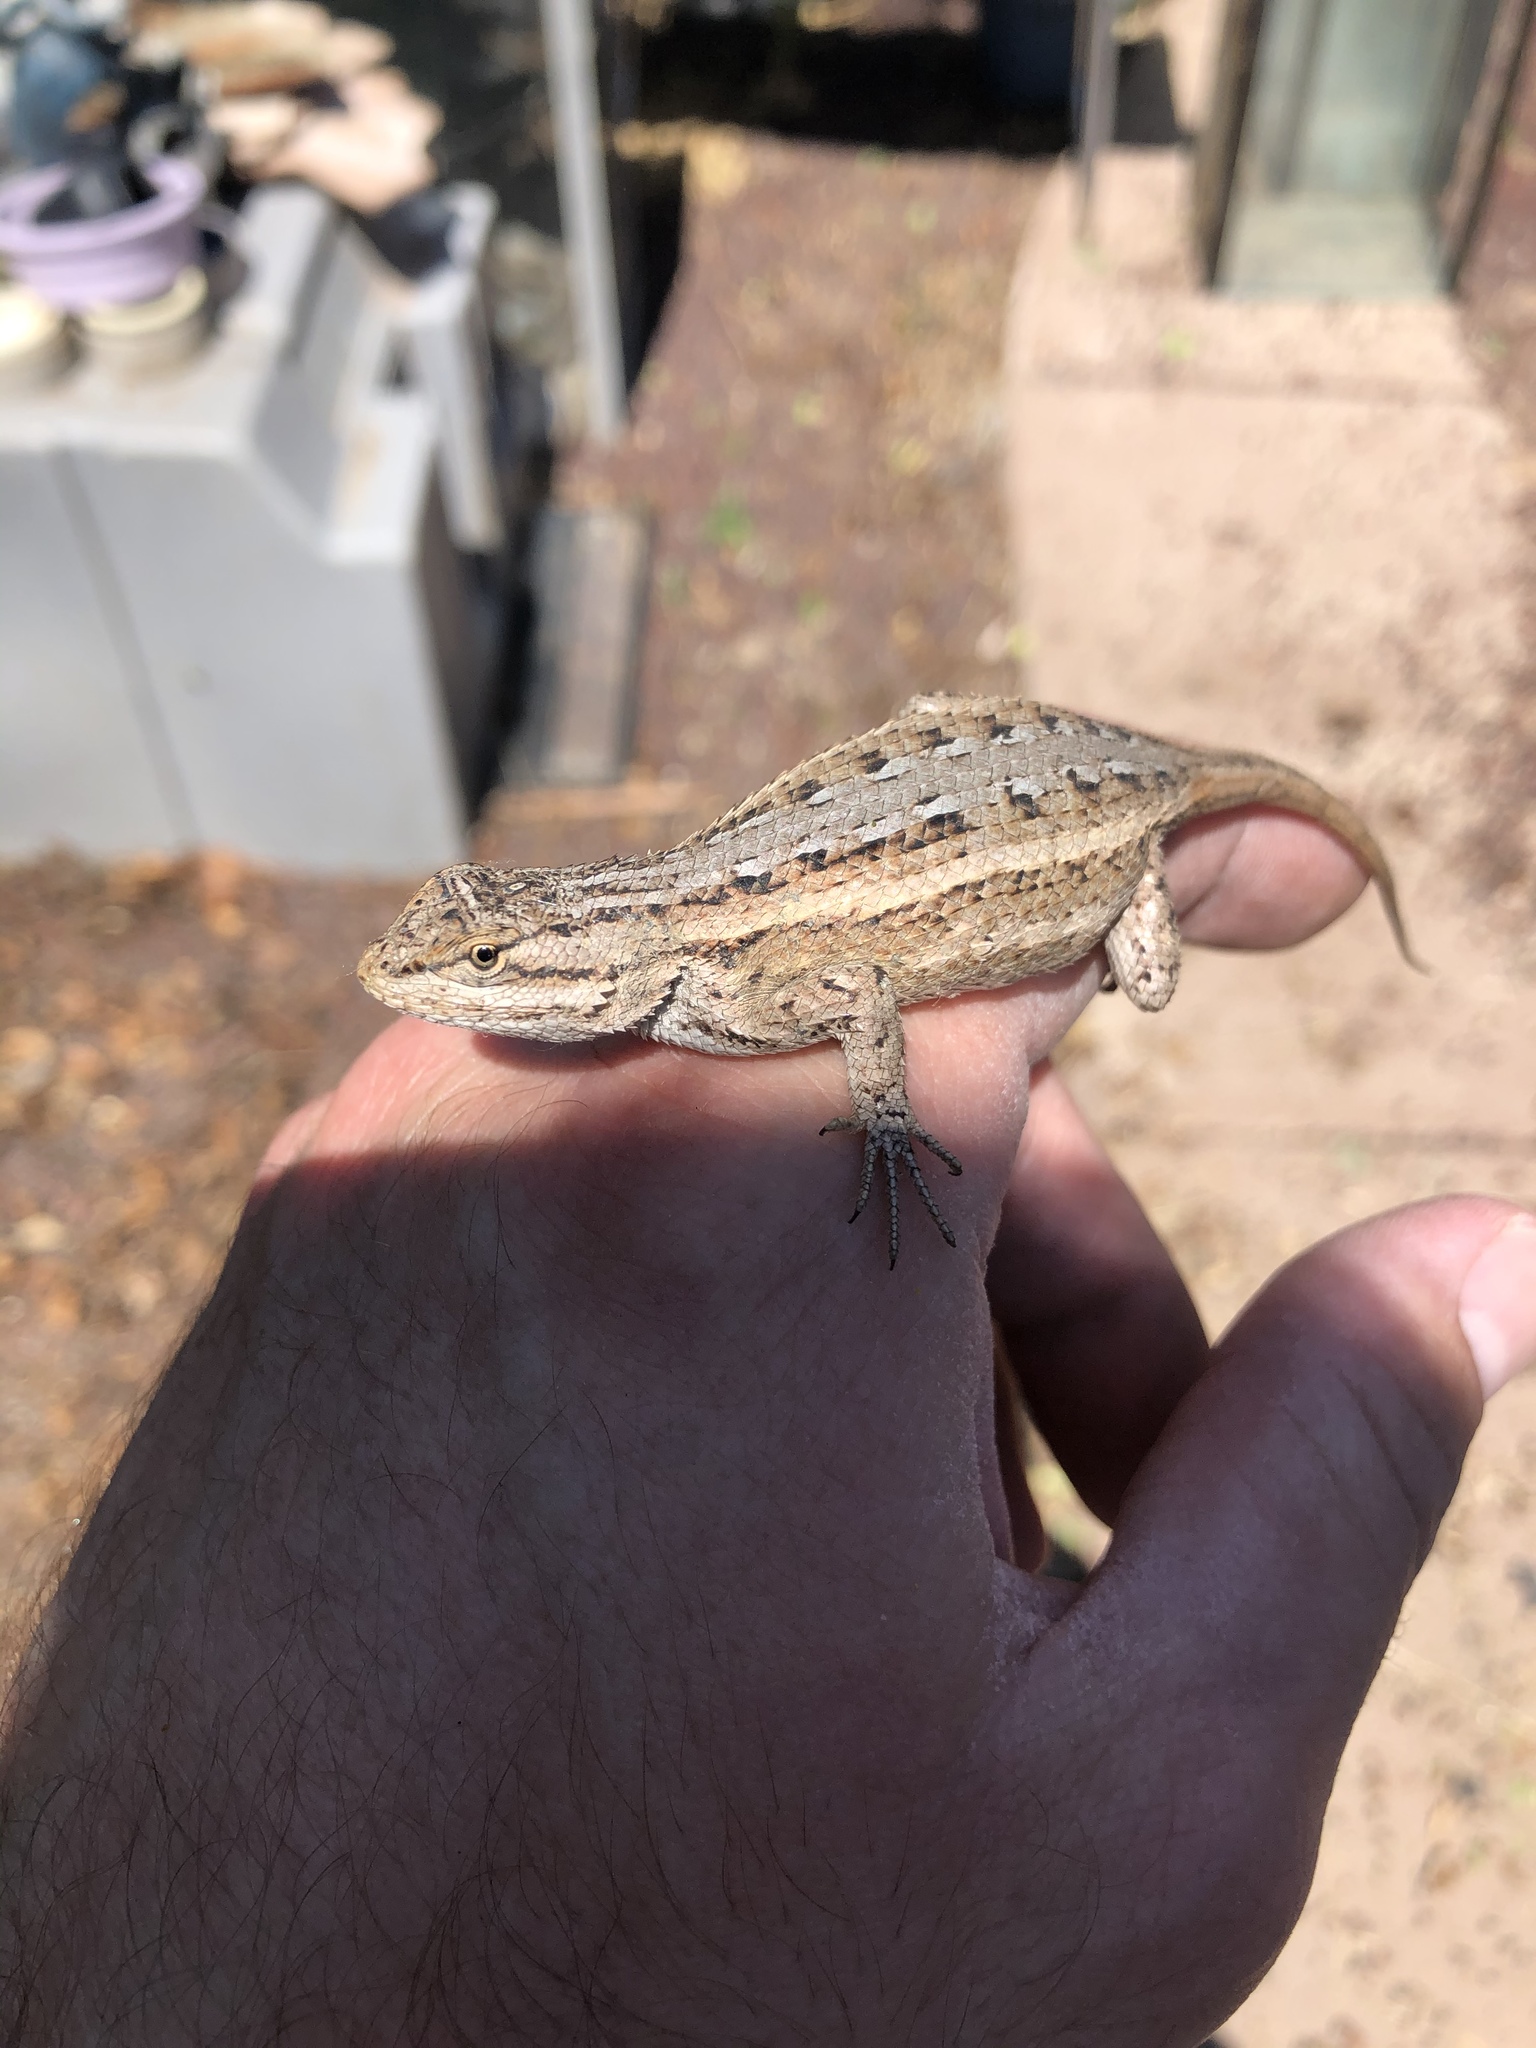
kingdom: Animalia
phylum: Chordata
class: Squamata
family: Phrynosomatidae
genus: Sceloporus
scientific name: Sceloporus cowlesi
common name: White sands prairie lizard
